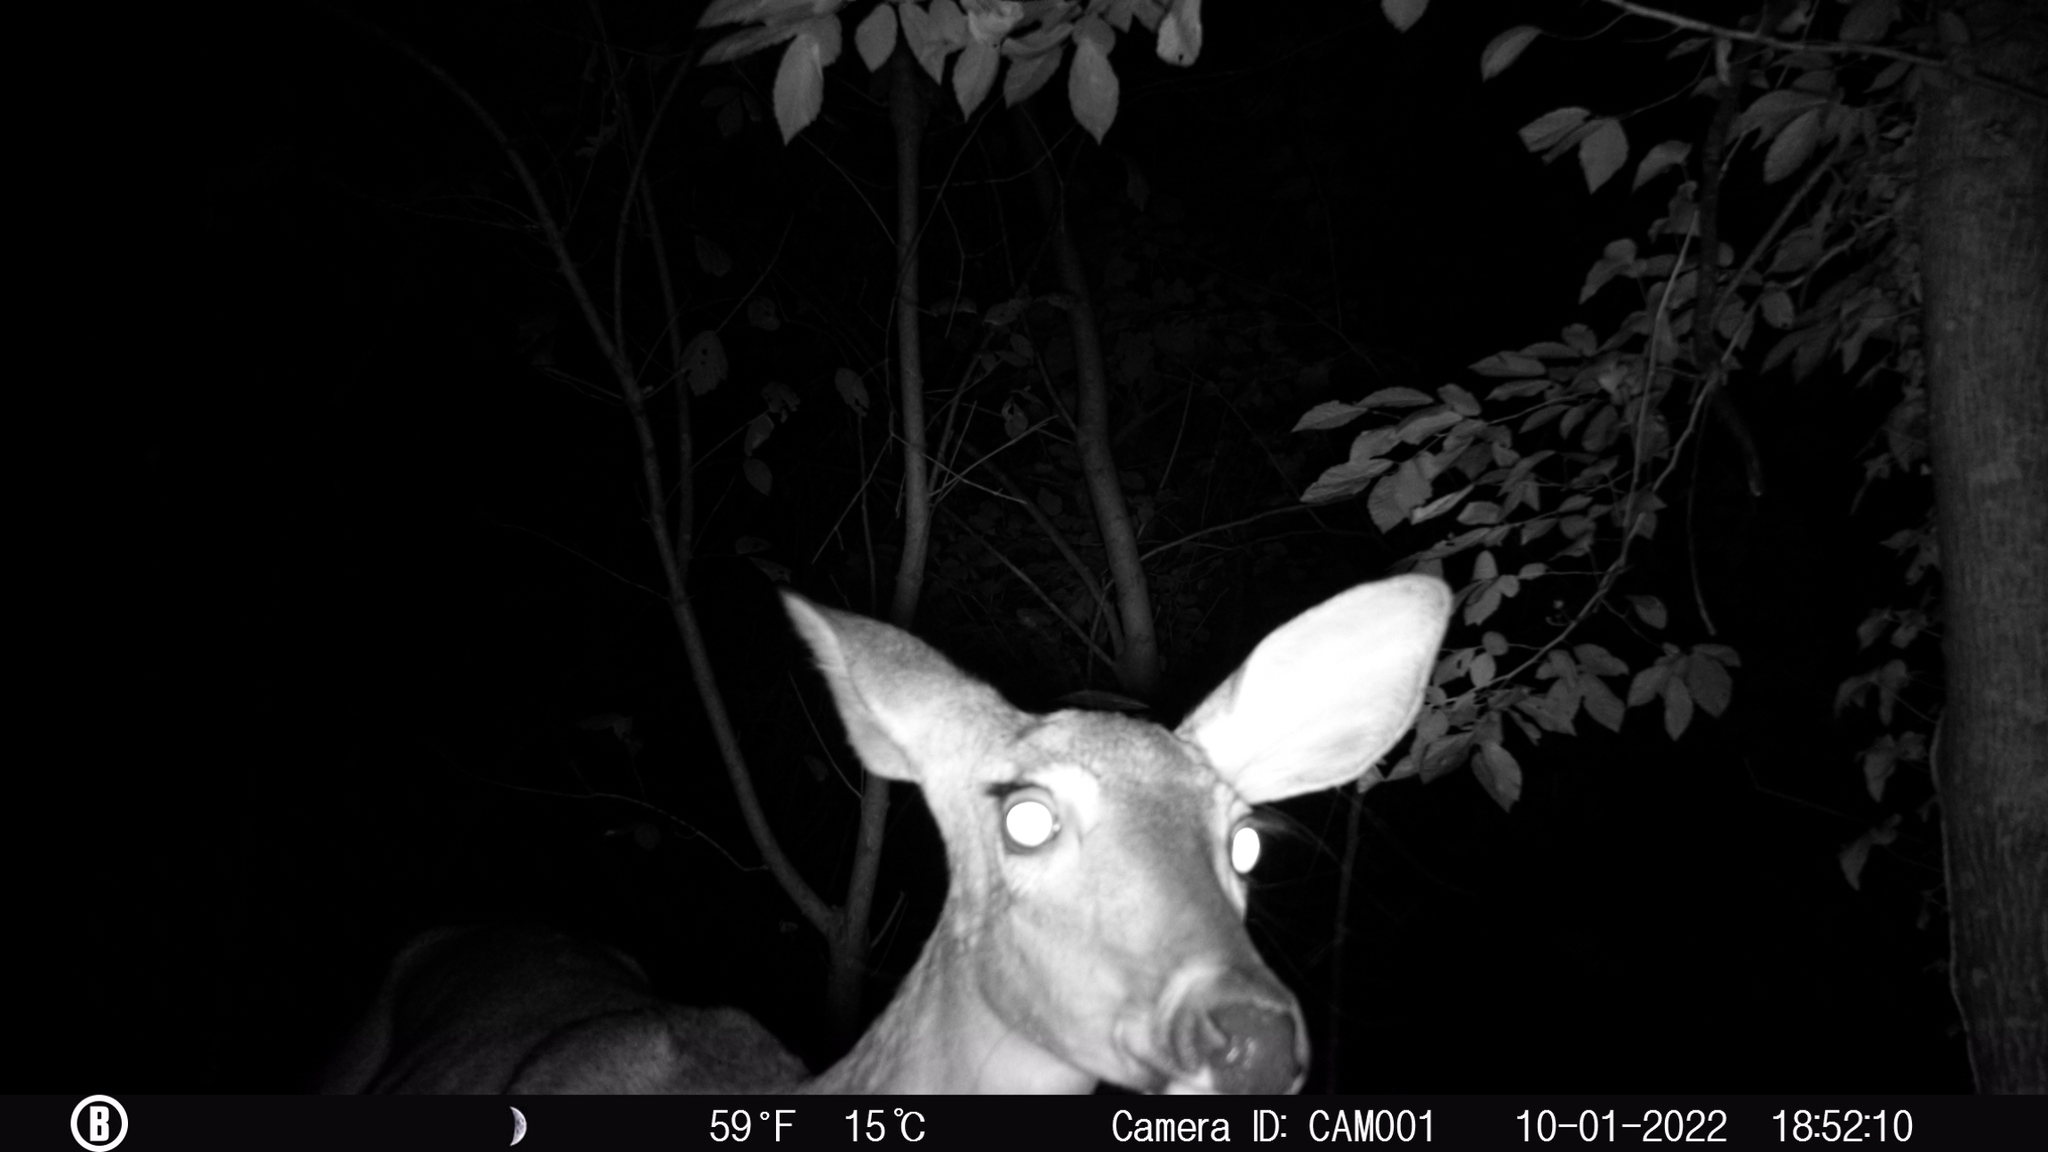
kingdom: Animalia
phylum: Chordata
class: Mammalia
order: Artiodactyla
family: Cervidae
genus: Odocoileus
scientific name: Odocoileus virginianus
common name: White-tailed deer
